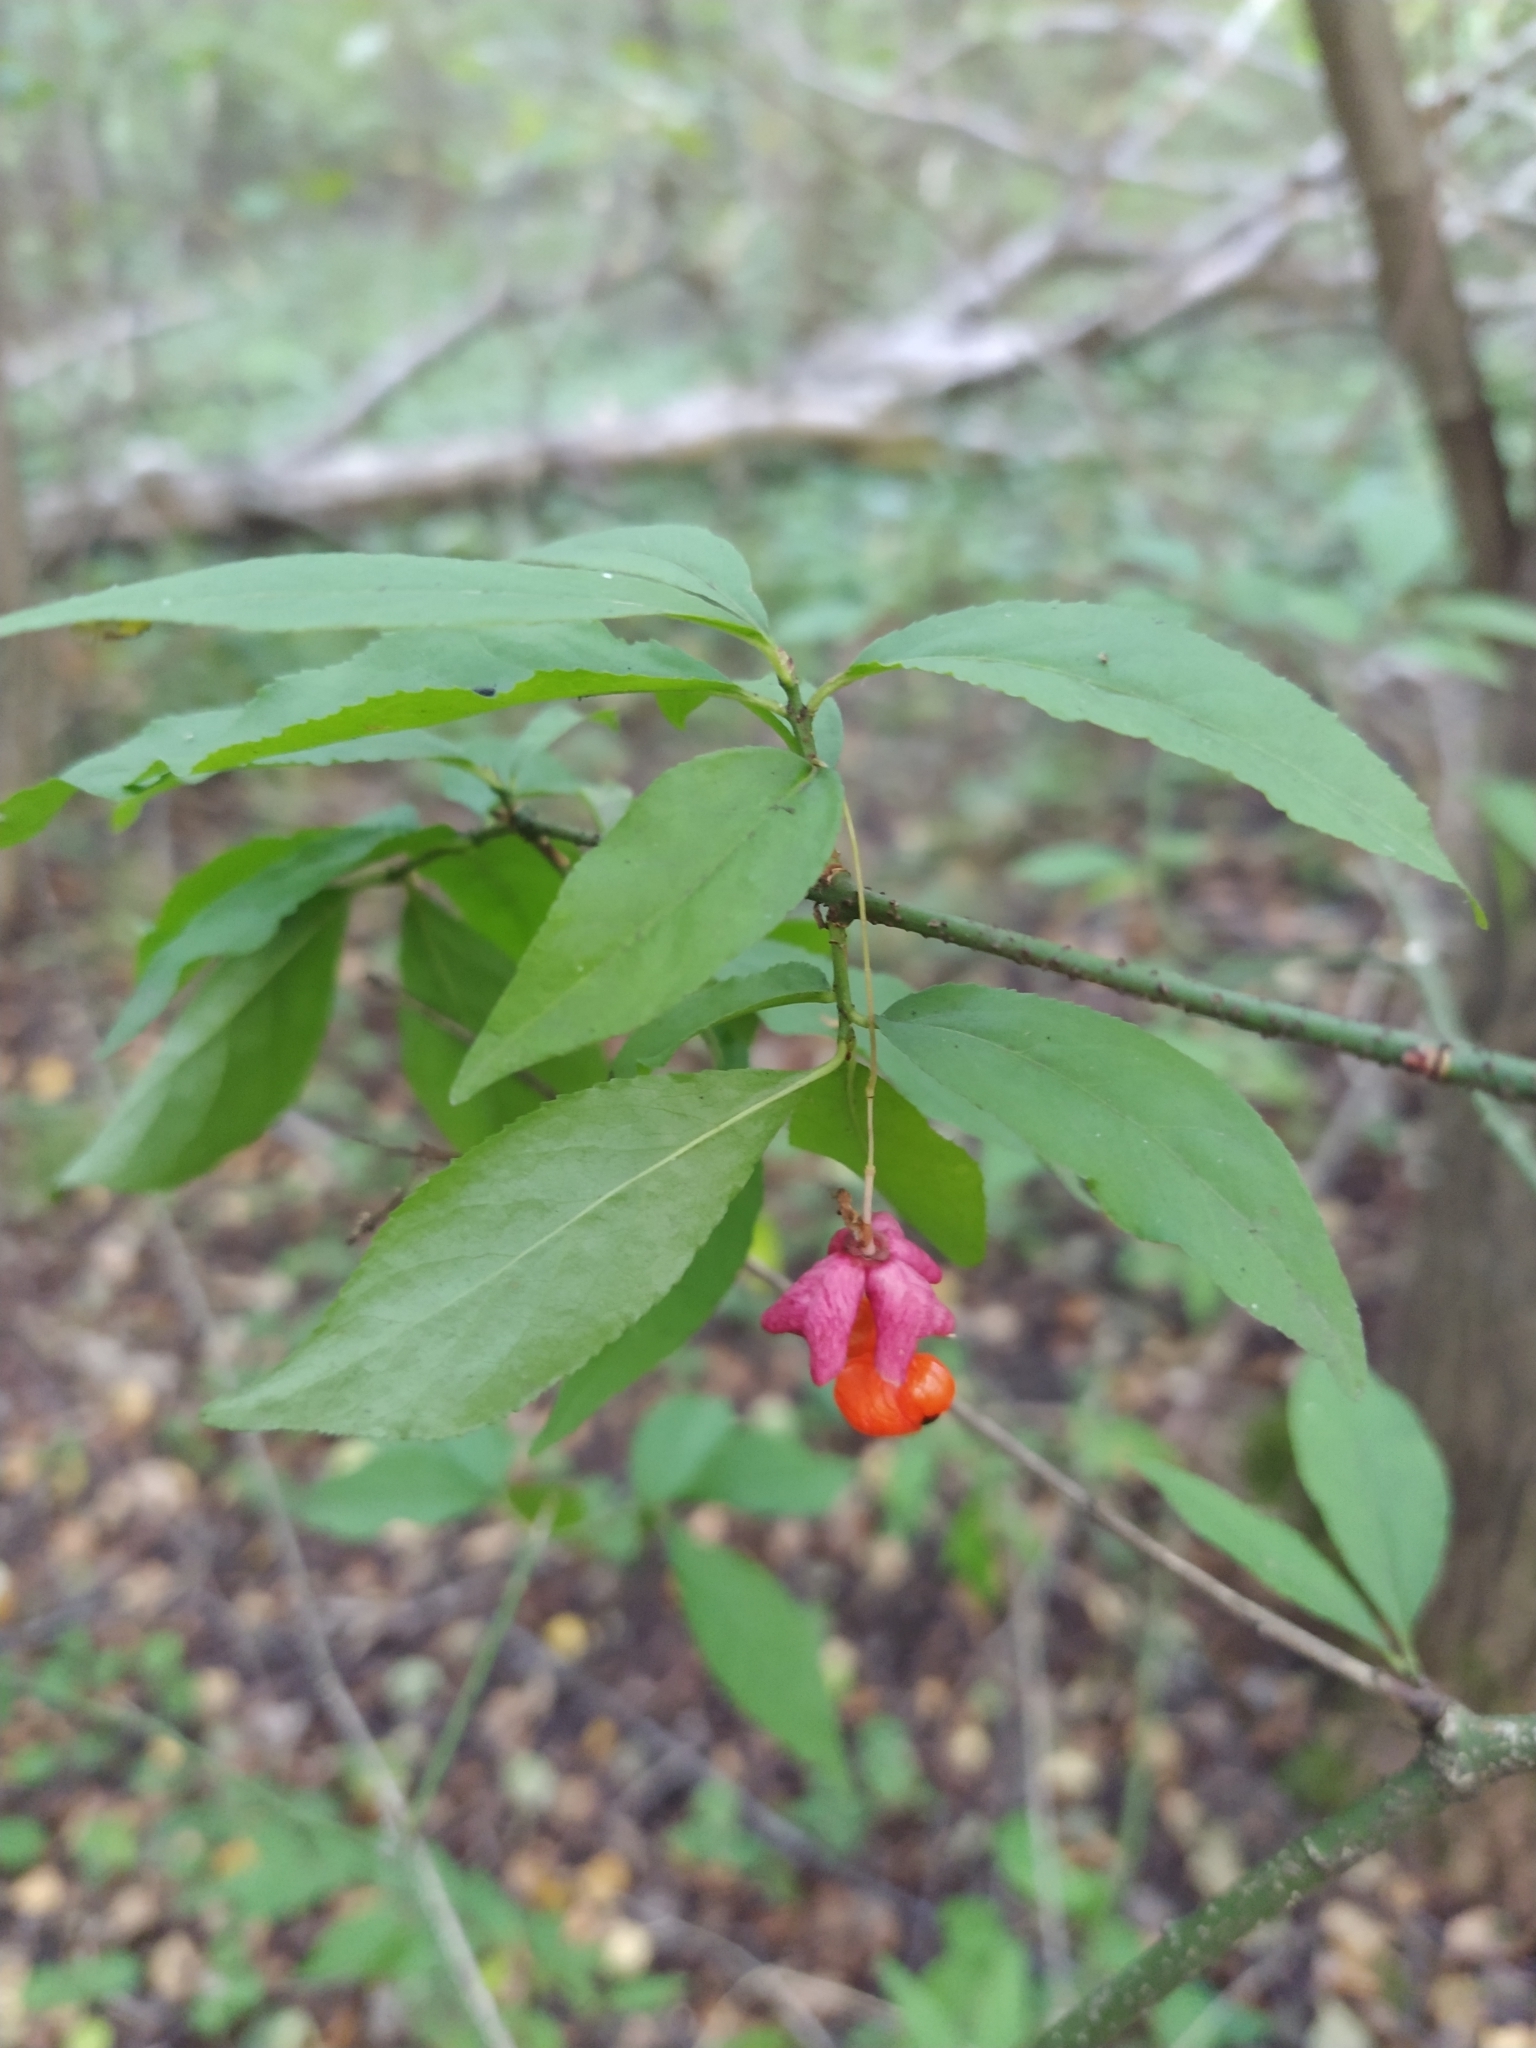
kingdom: Plantae
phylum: Tracheophyta
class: Magnoliopsida
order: Celastrales
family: Celastraceae
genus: Euonymus
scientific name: Euonymus verrucosus
